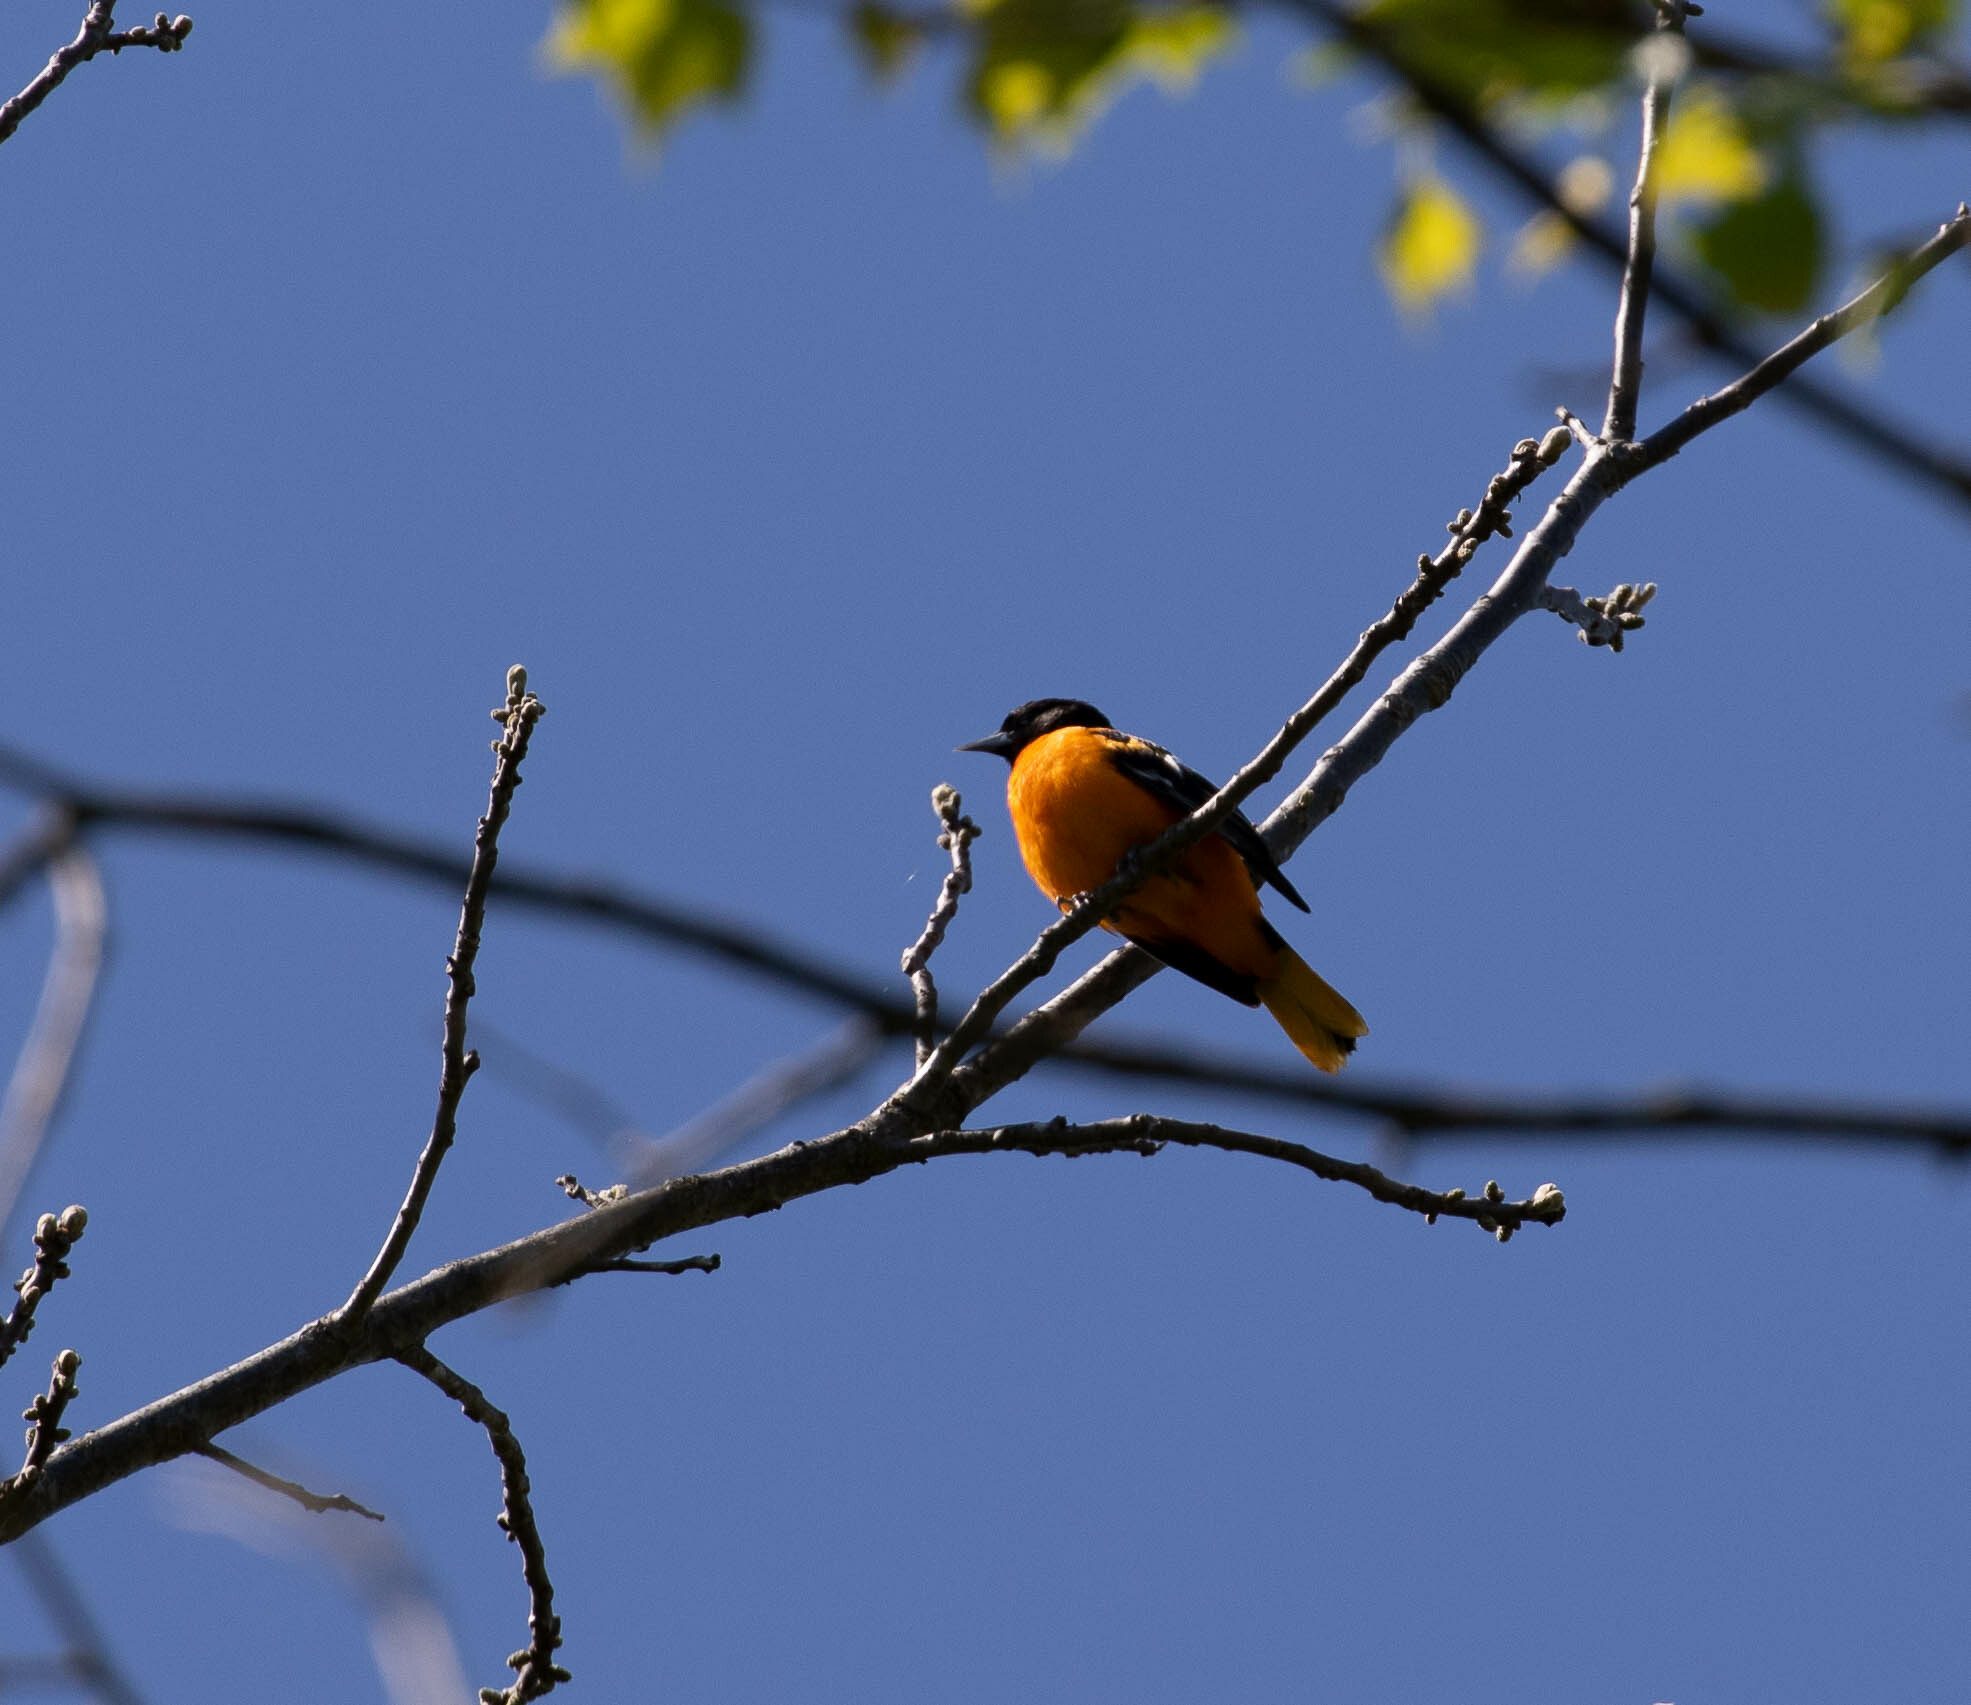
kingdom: Animalia
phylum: Chordata
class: Aves
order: Passeriformes
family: Icteridae
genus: Icterus
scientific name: Icterus galbula
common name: Baltimore oriole
